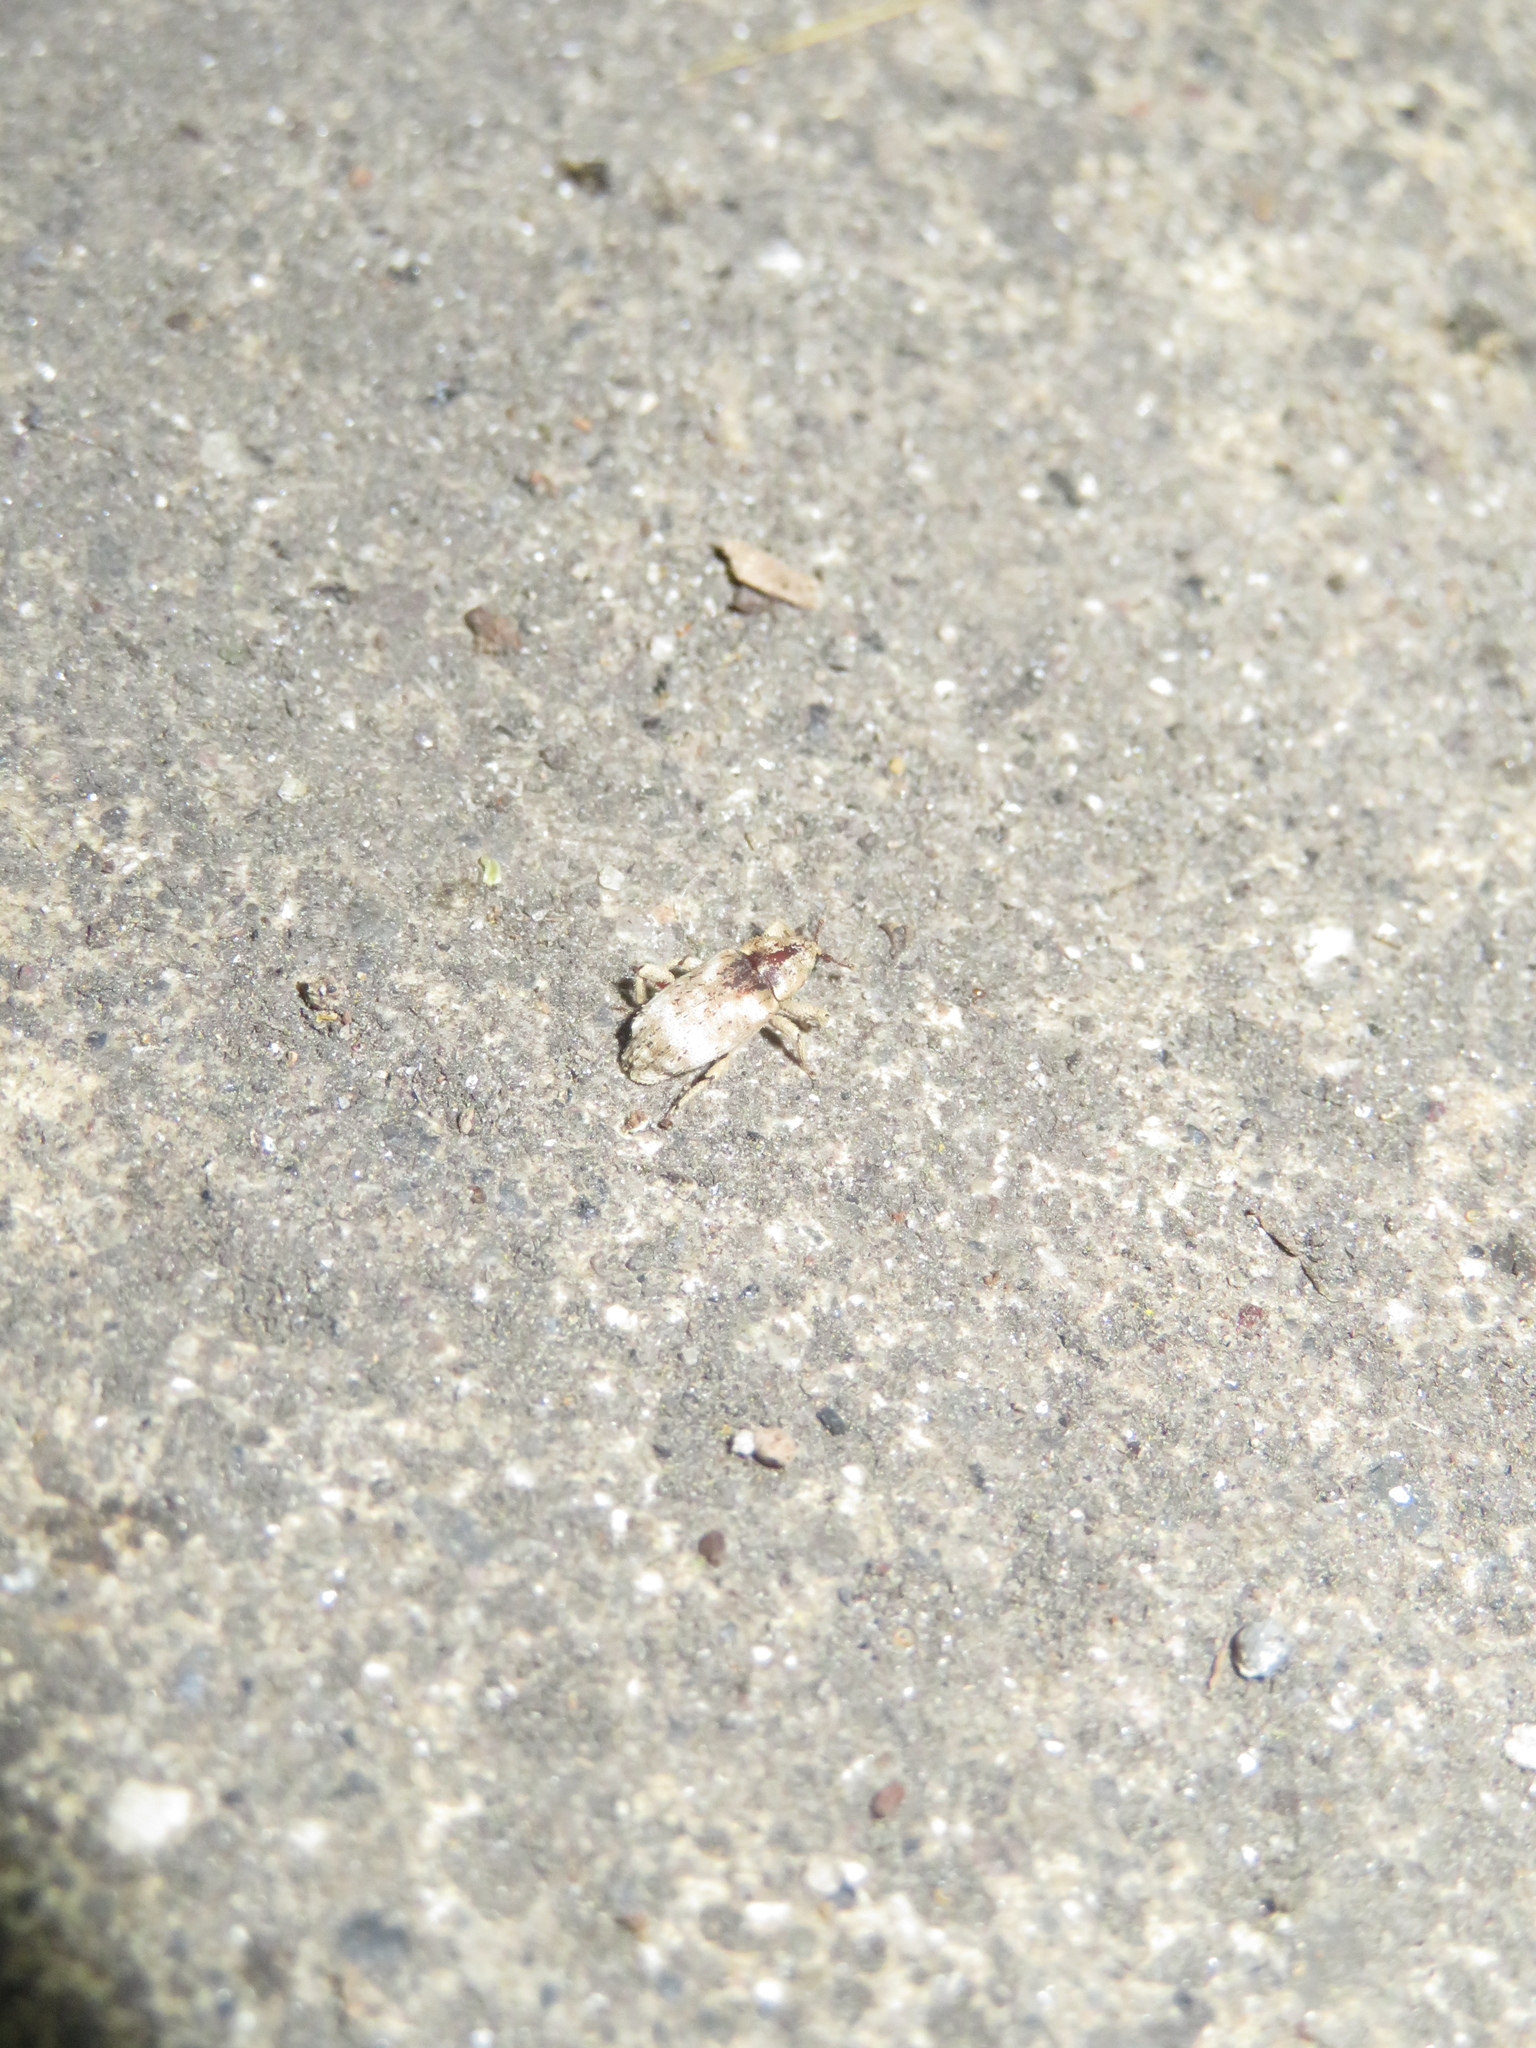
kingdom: Animalia
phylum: Arthropoda
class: Insecta
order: Coleoptera
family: Curculionidae
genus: Mitrastethus
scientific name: Mitrastethus baridioides
